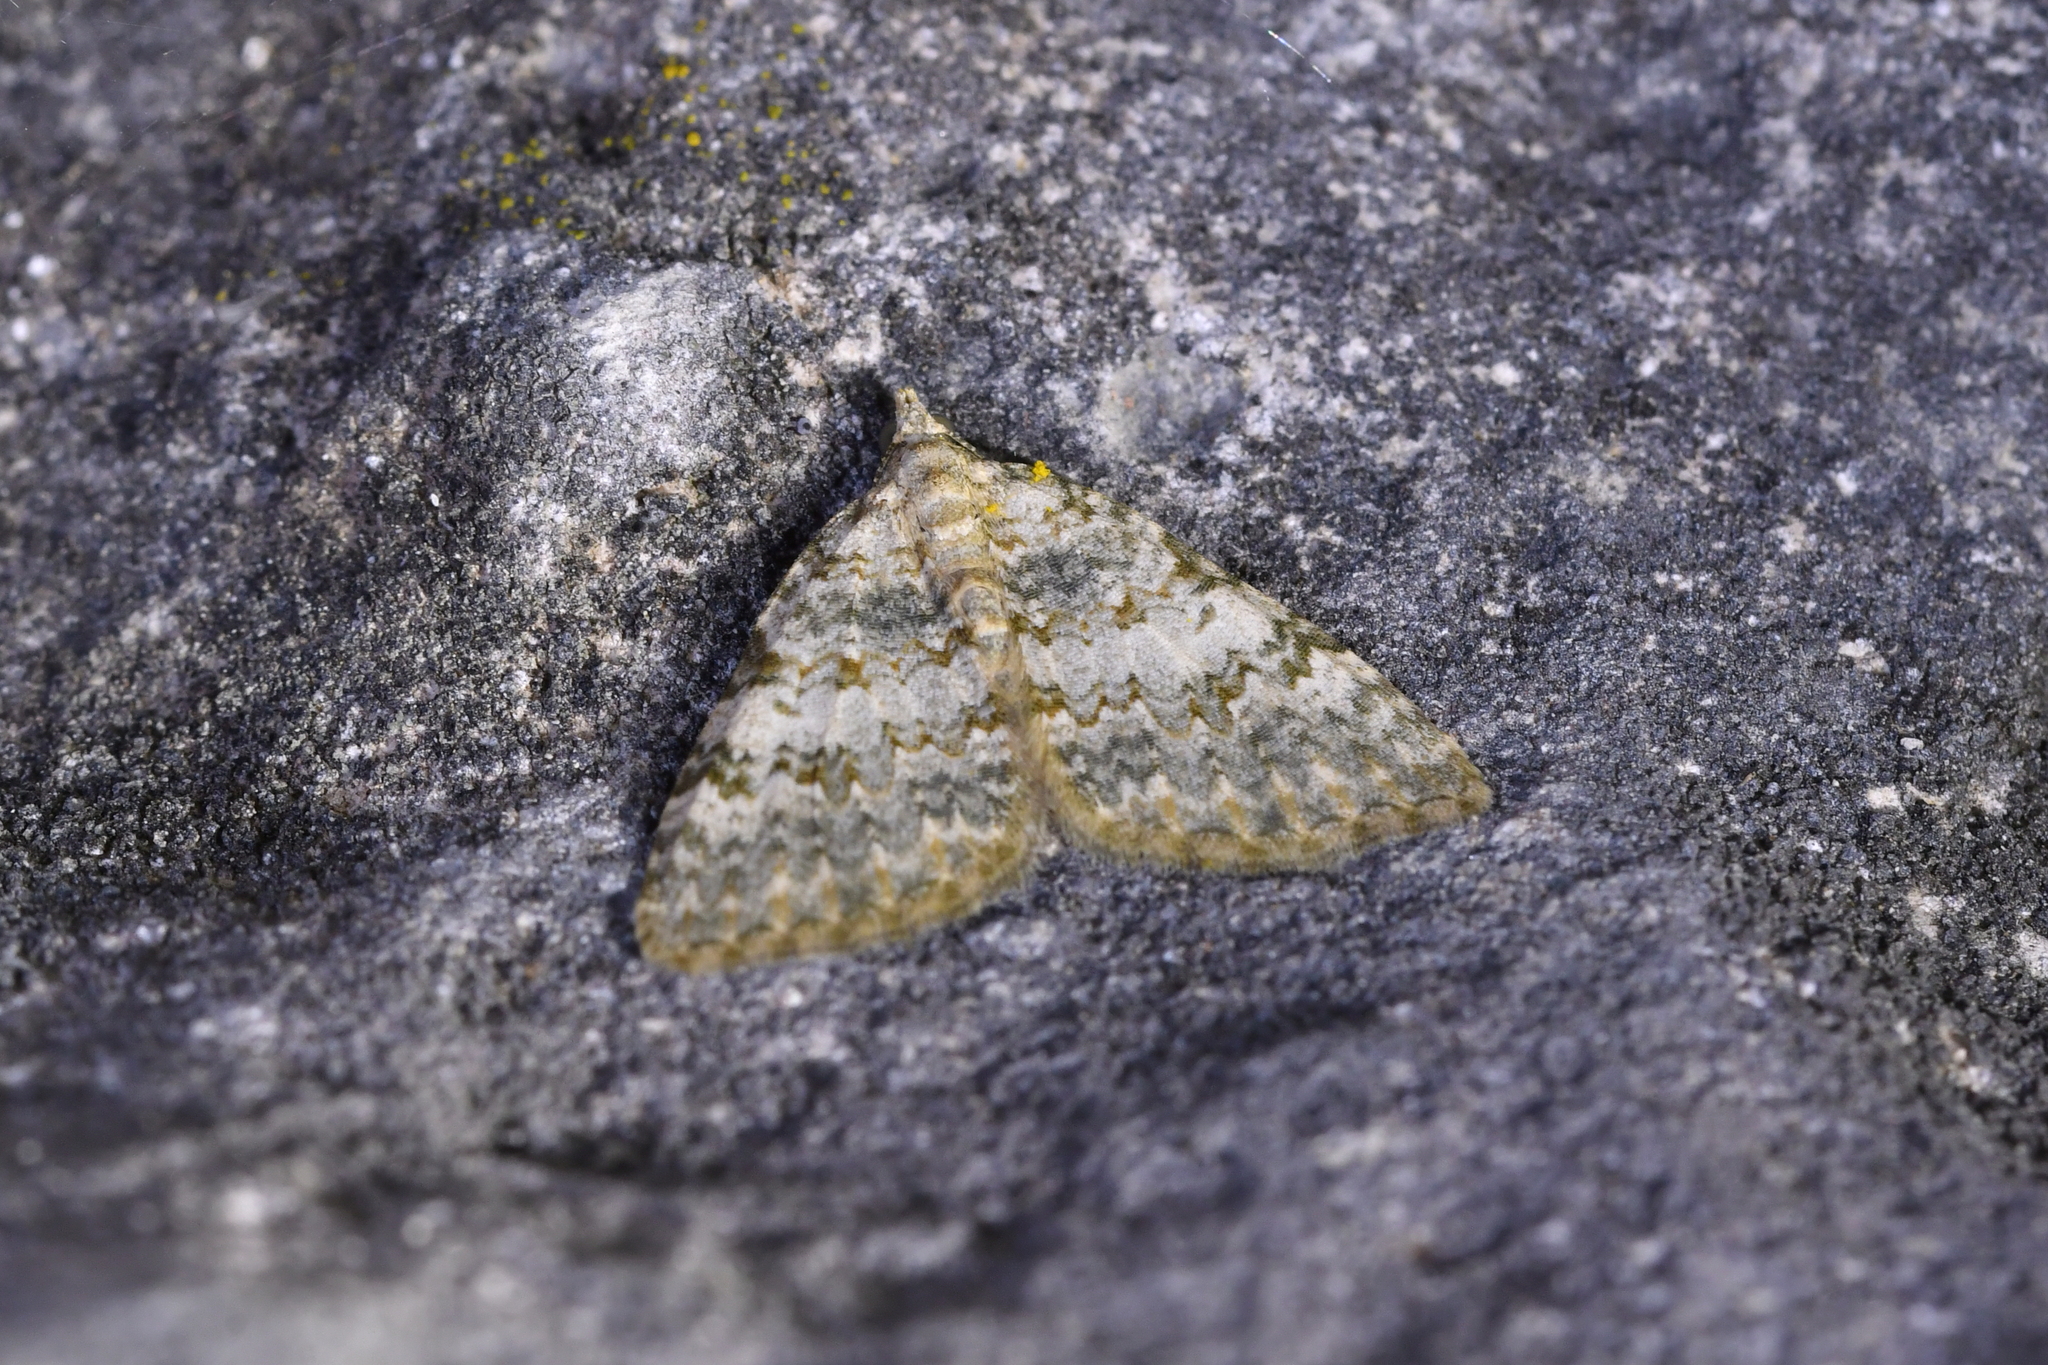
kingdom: Animalia
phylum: Arthropoda
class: Insecta
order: Lepidoptera
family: Geometridae
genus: Helastia
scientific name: Helastia christinae
